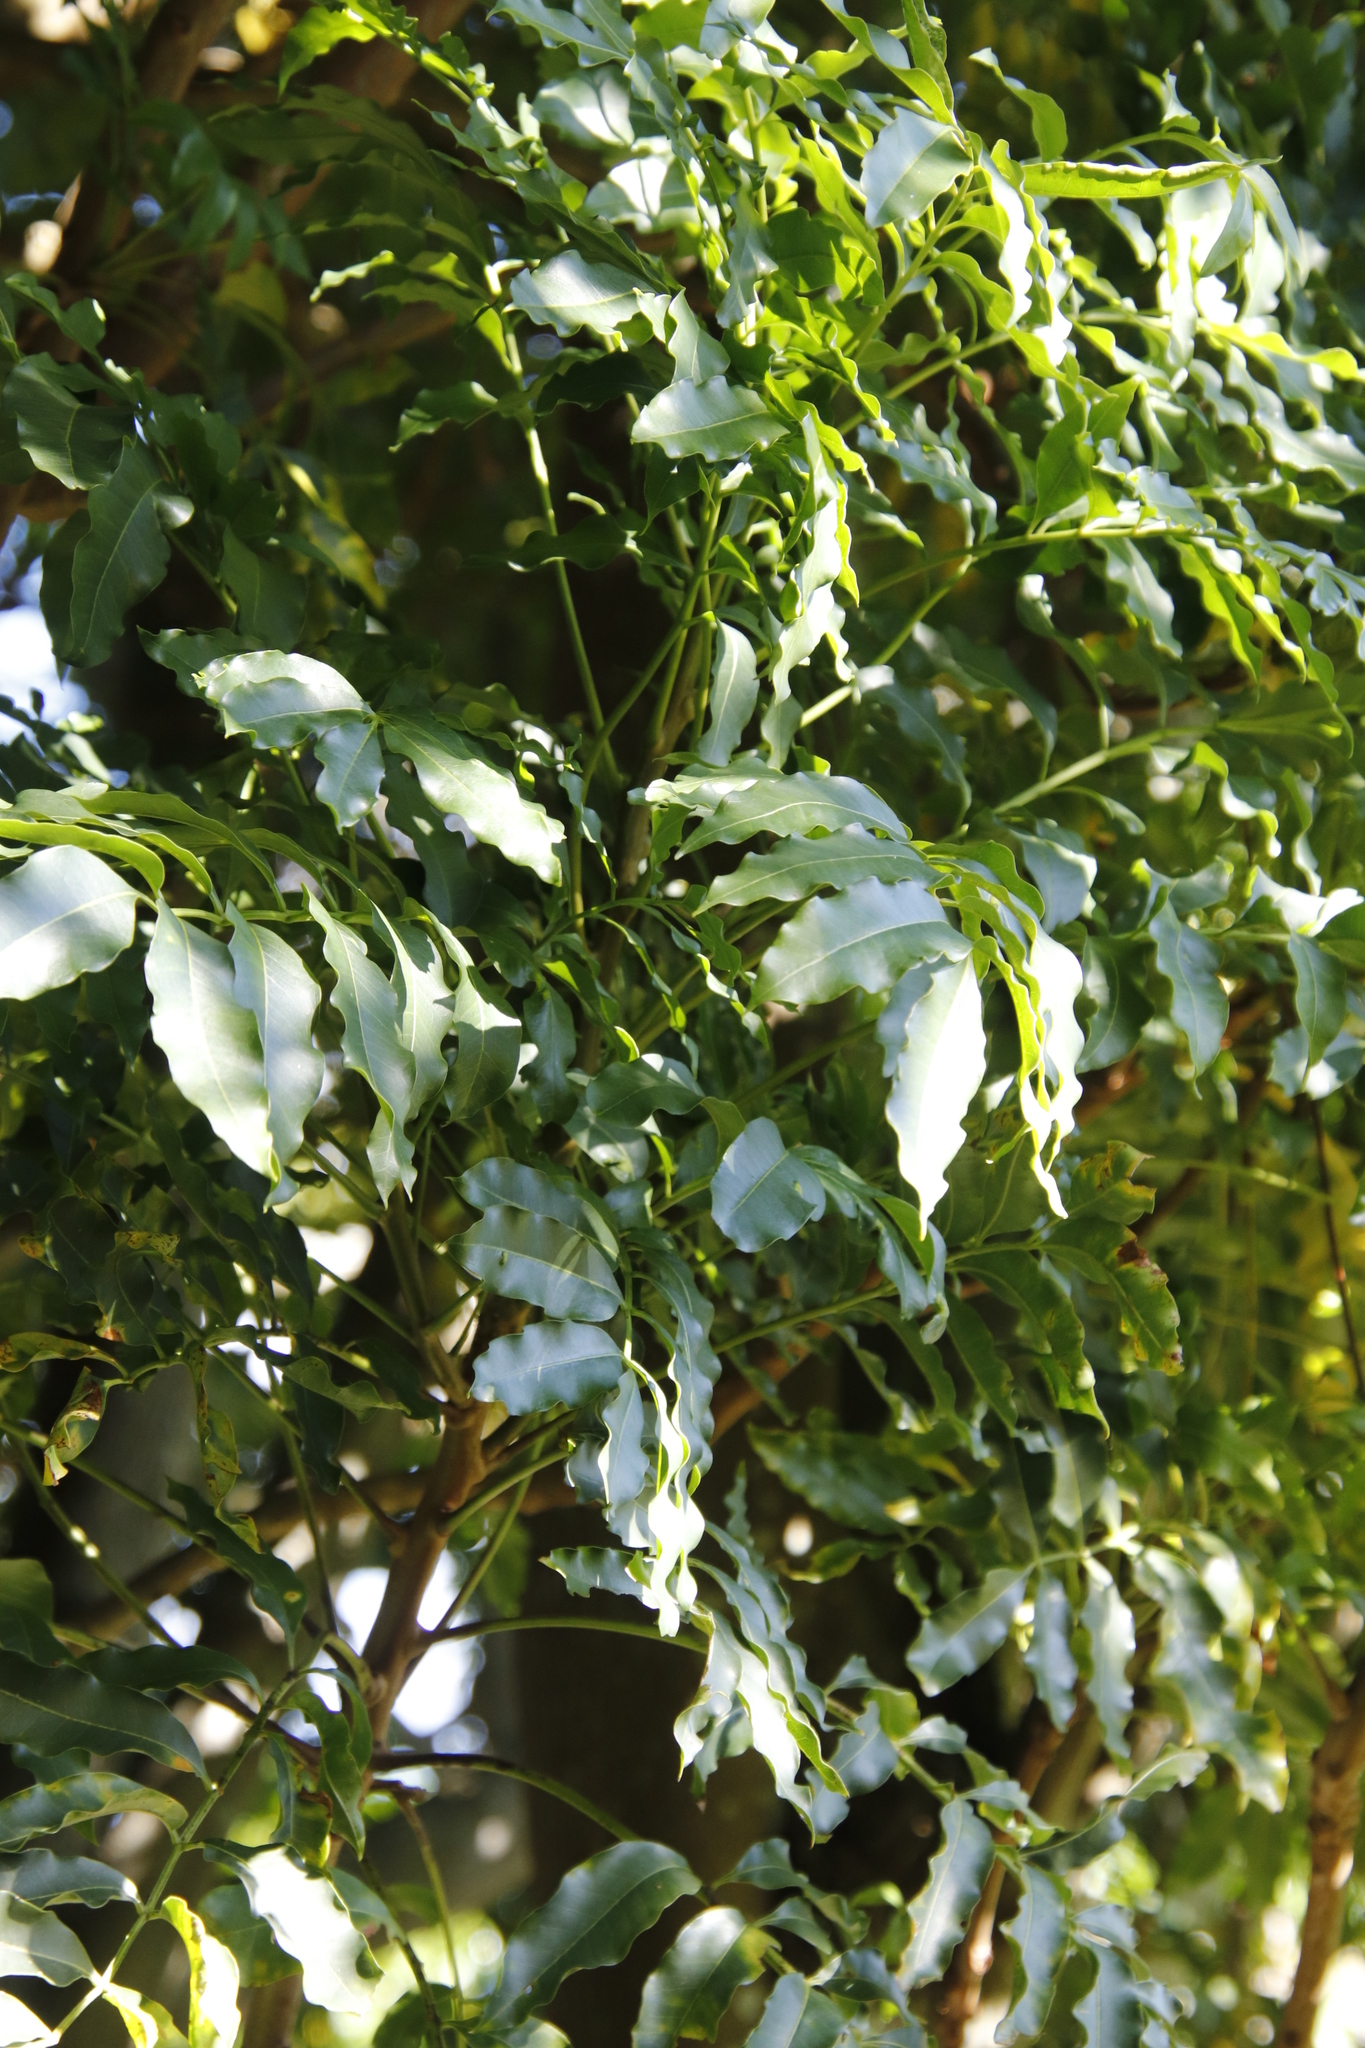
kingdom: Plantae
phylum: Tracheophyta
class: Magnoliopsida
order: Sapindales
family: Anacardiaceae
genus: Harpephyllum
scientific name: Harpephyllum caffrum
